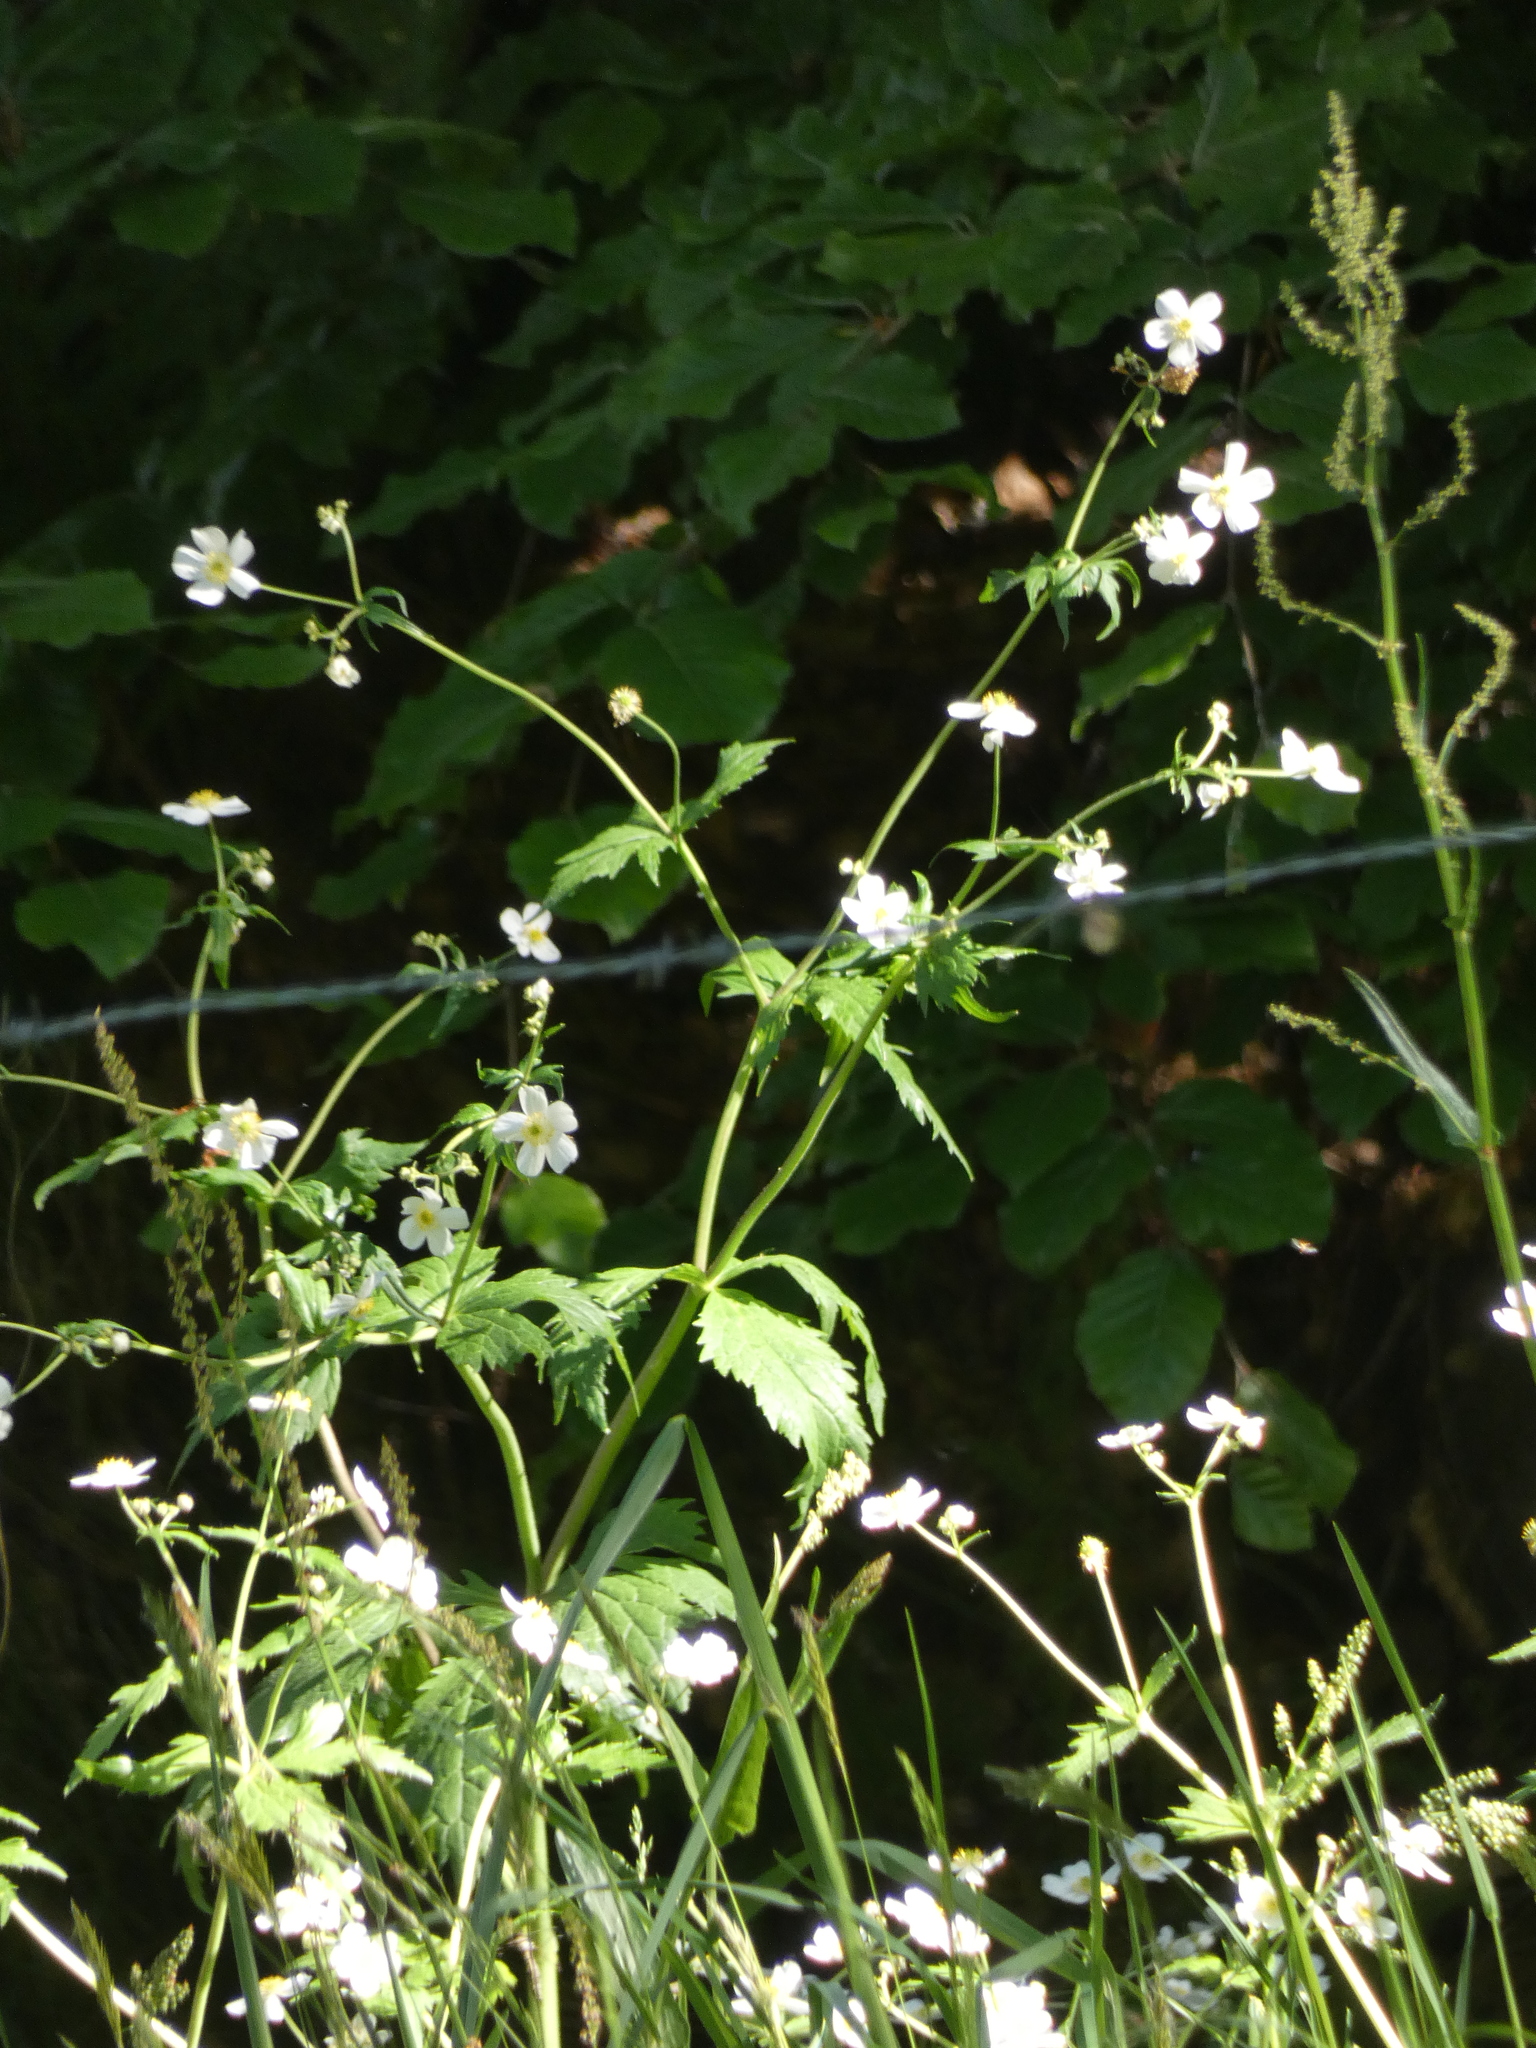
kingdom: Plantae
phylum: Tracheophyta
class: Magnoliopsida
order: Ranunculales
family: Ranunculaceae
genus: Ranunculus
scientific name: Ranunculus aconitifolius
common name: Aconite-leaved buttercup
